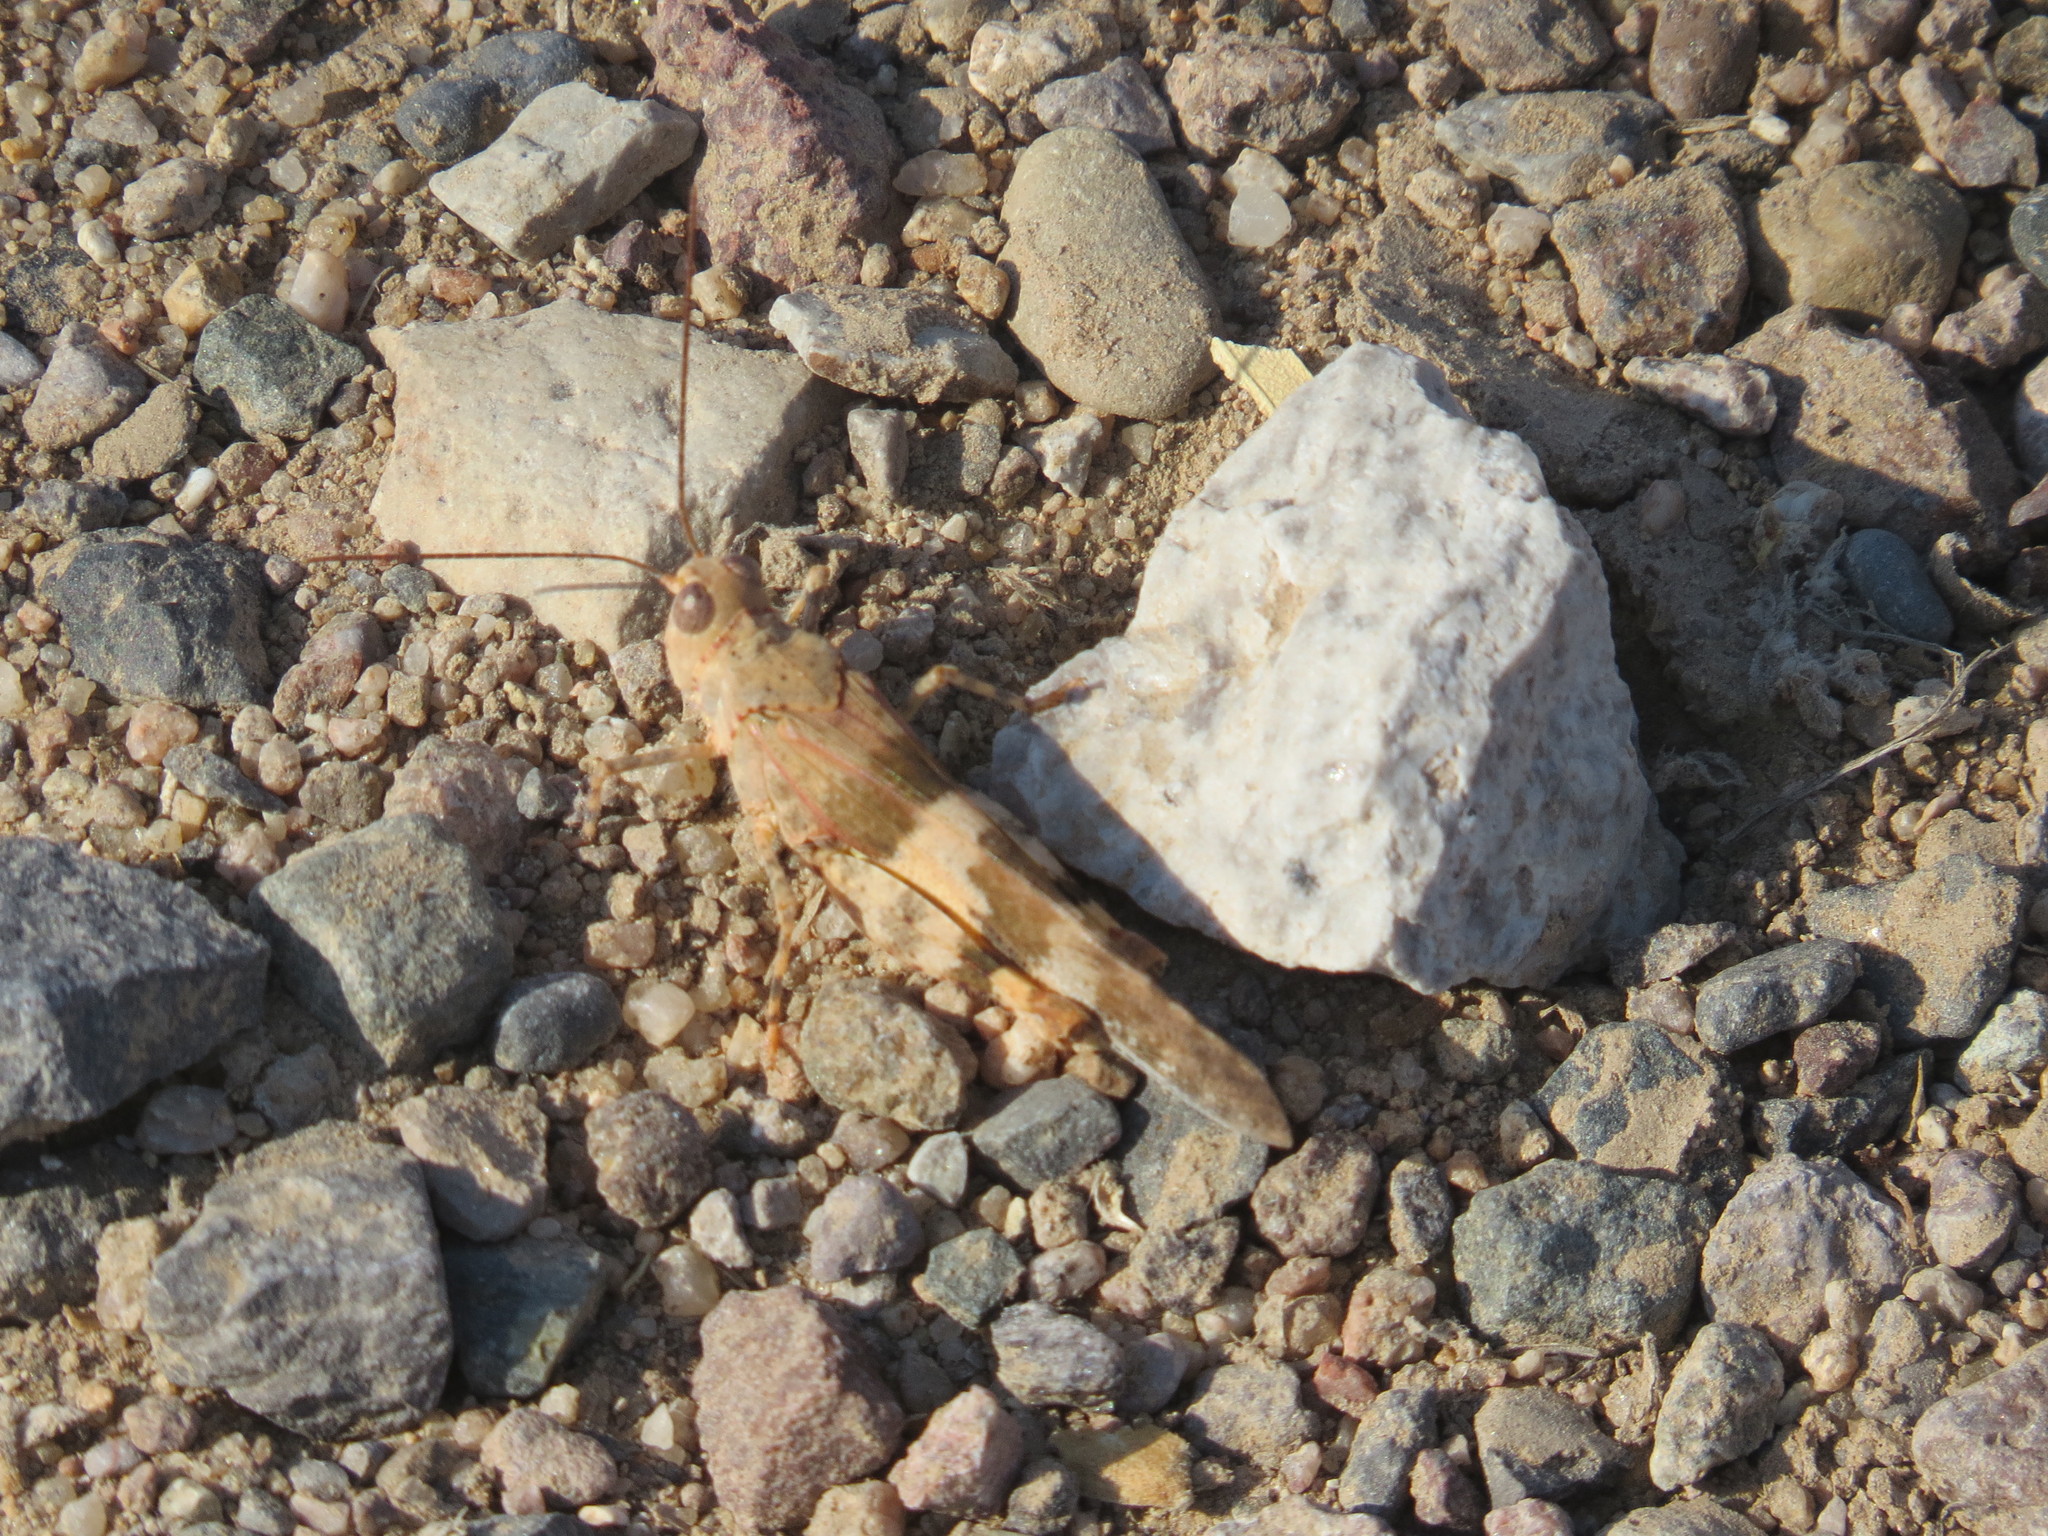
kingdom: Animalia
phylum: Arthropoda
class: Insecta
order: Orthoptera
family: Acrididae
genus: Trimerotropis
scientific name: Trimerotropis pallidipennis
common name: Pallid-winged grasshopper
